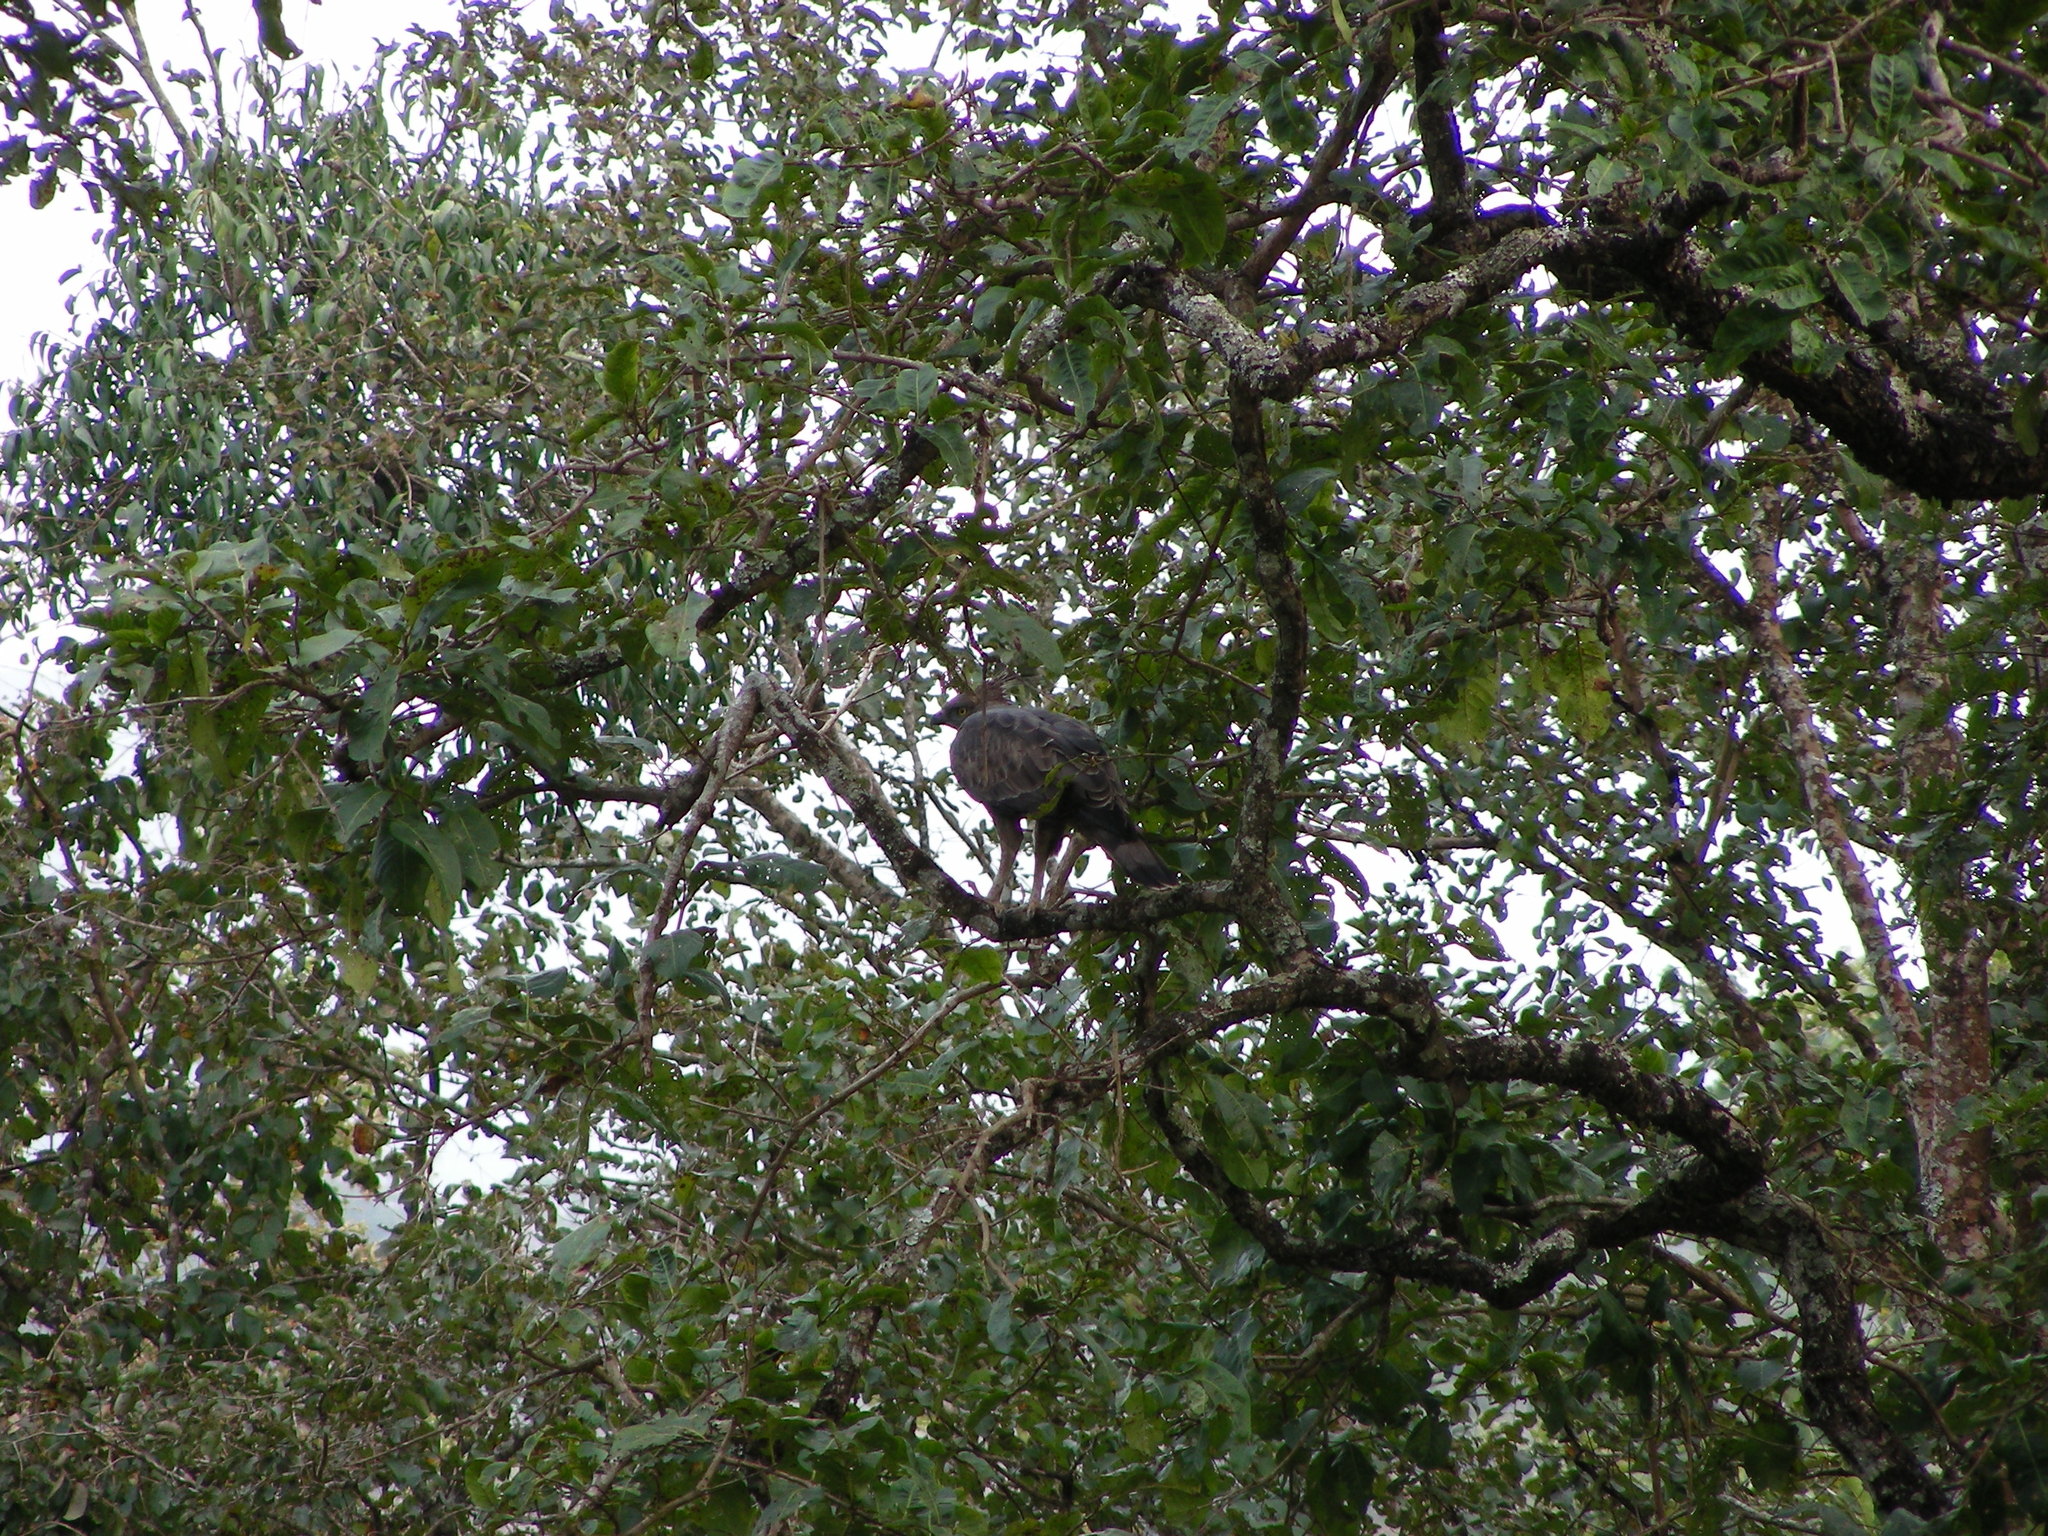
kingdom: Animalia
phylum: Chordata
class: Aves
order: Accipitriformes
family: Accipitridae
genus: Nisaetus
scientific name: Nisaetus cirrhatus
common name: Changeable hawk-eagle
